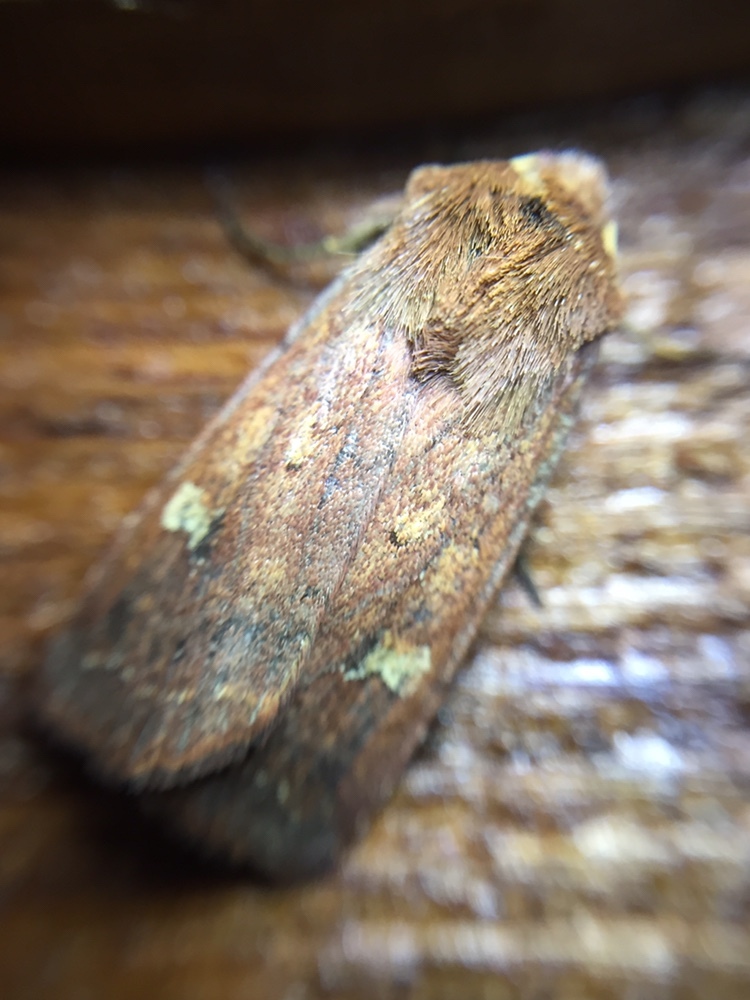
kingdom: Animalia
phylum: Arthropoda
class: Insecta
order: Lepidoptera
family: Noctuidae
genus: Diarsia
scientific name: Diarsia intermixta
